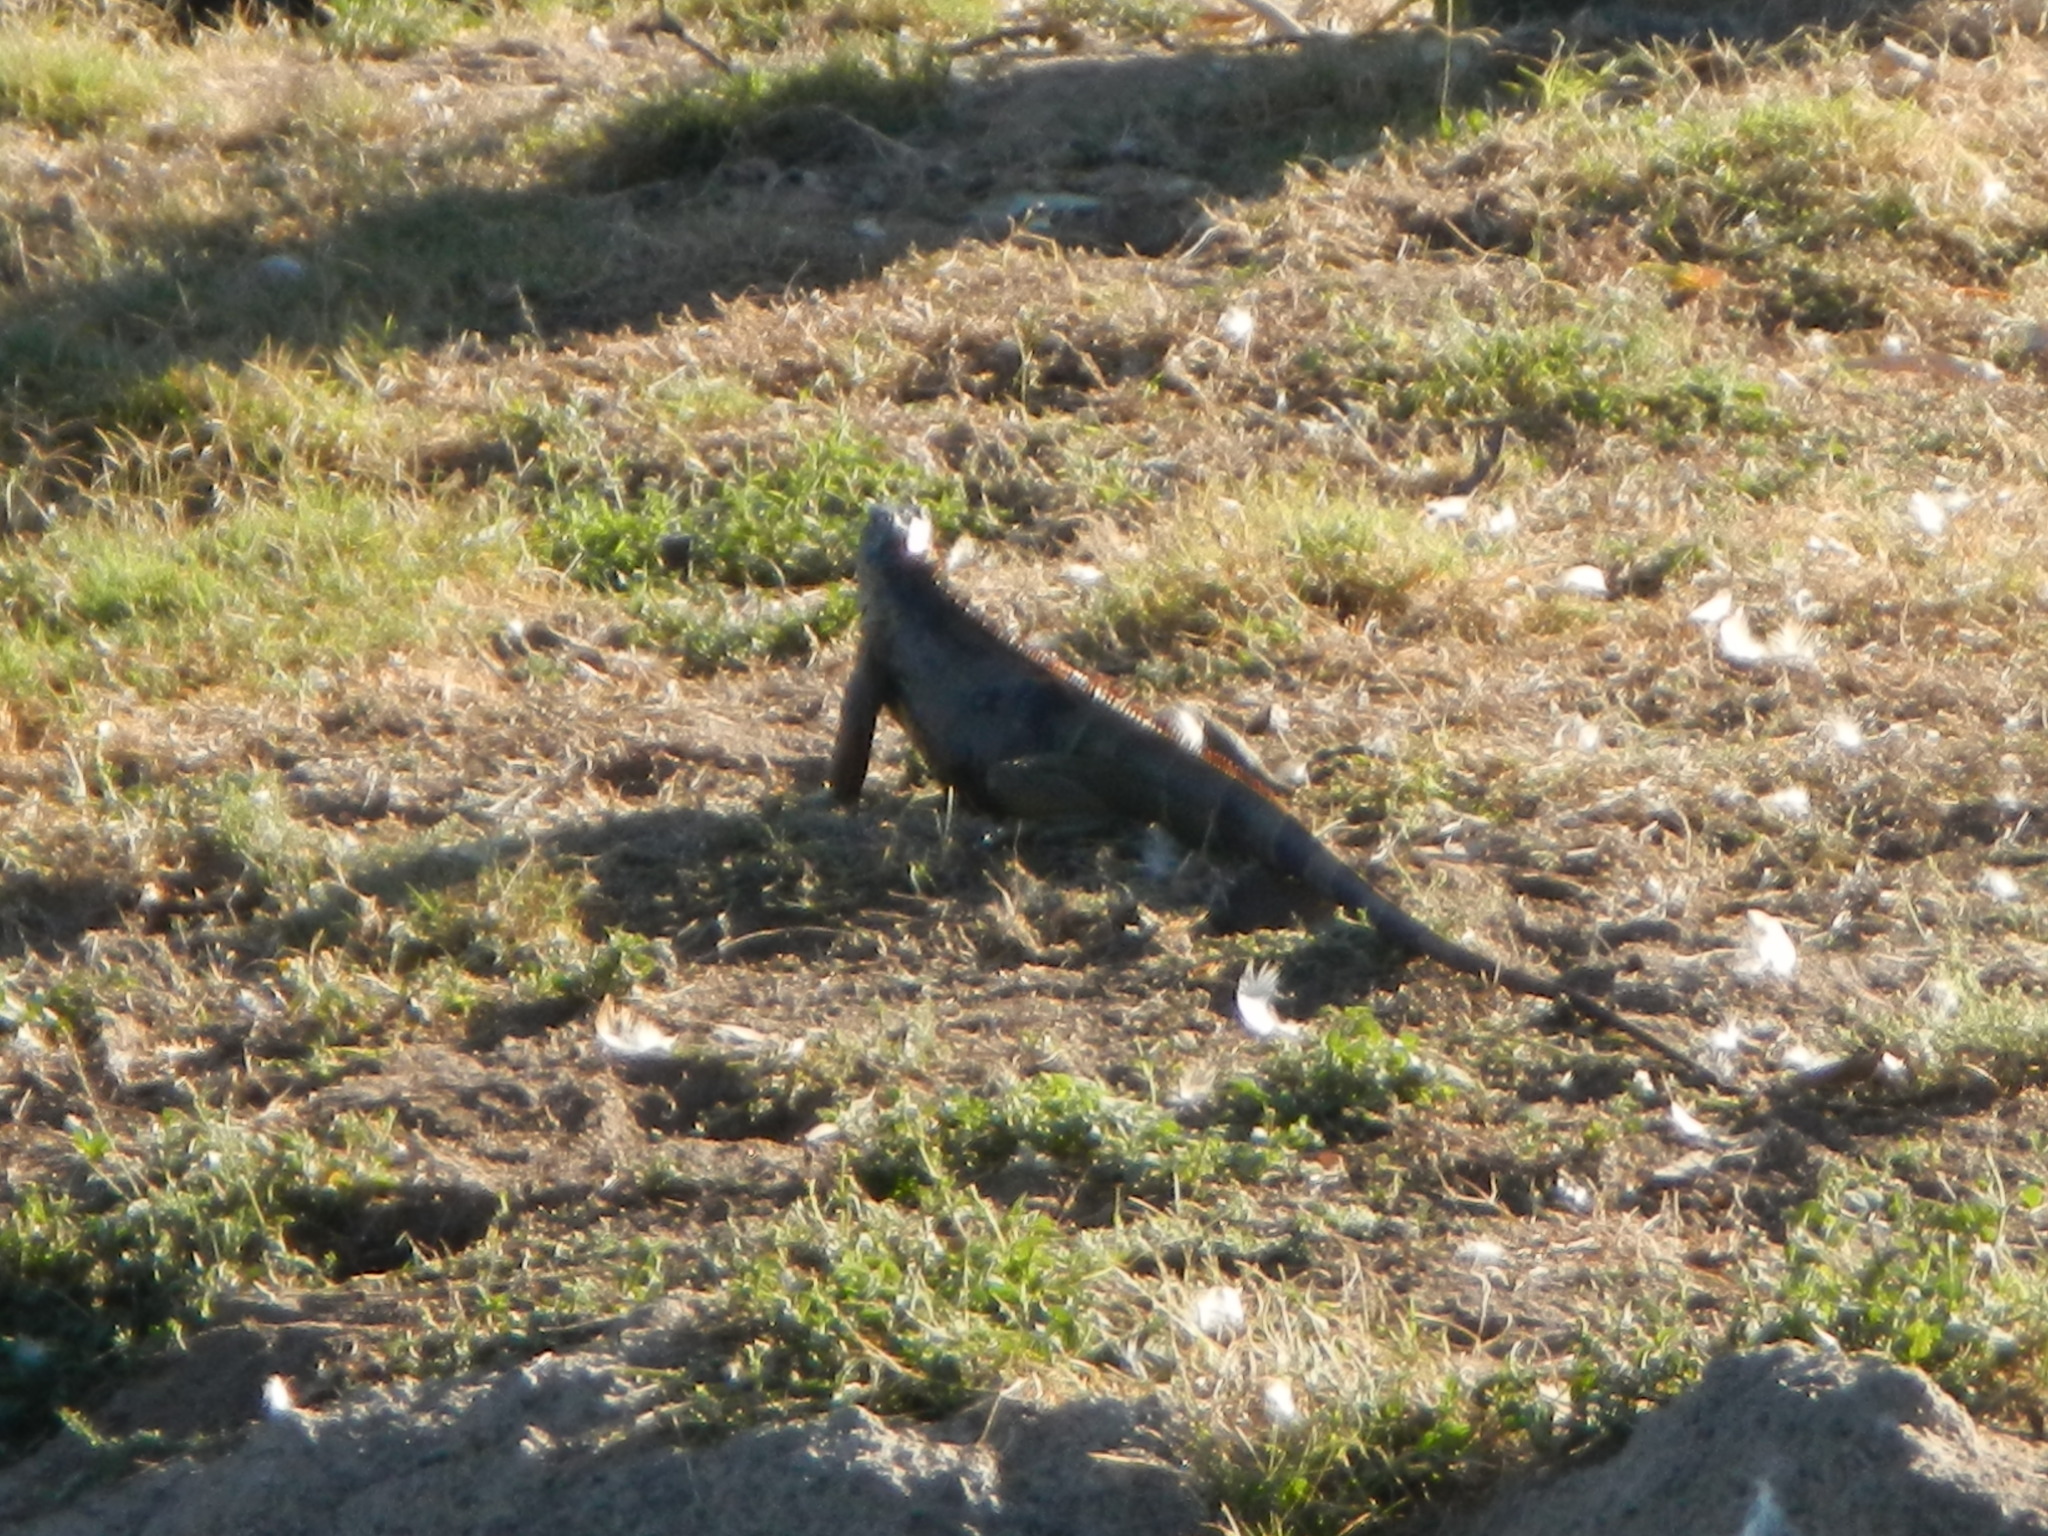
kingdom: Animalia
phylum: Chordata
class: Squamata
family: Iguanidae
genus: Iguana
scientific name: Iguana iguana
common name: Green iguana
